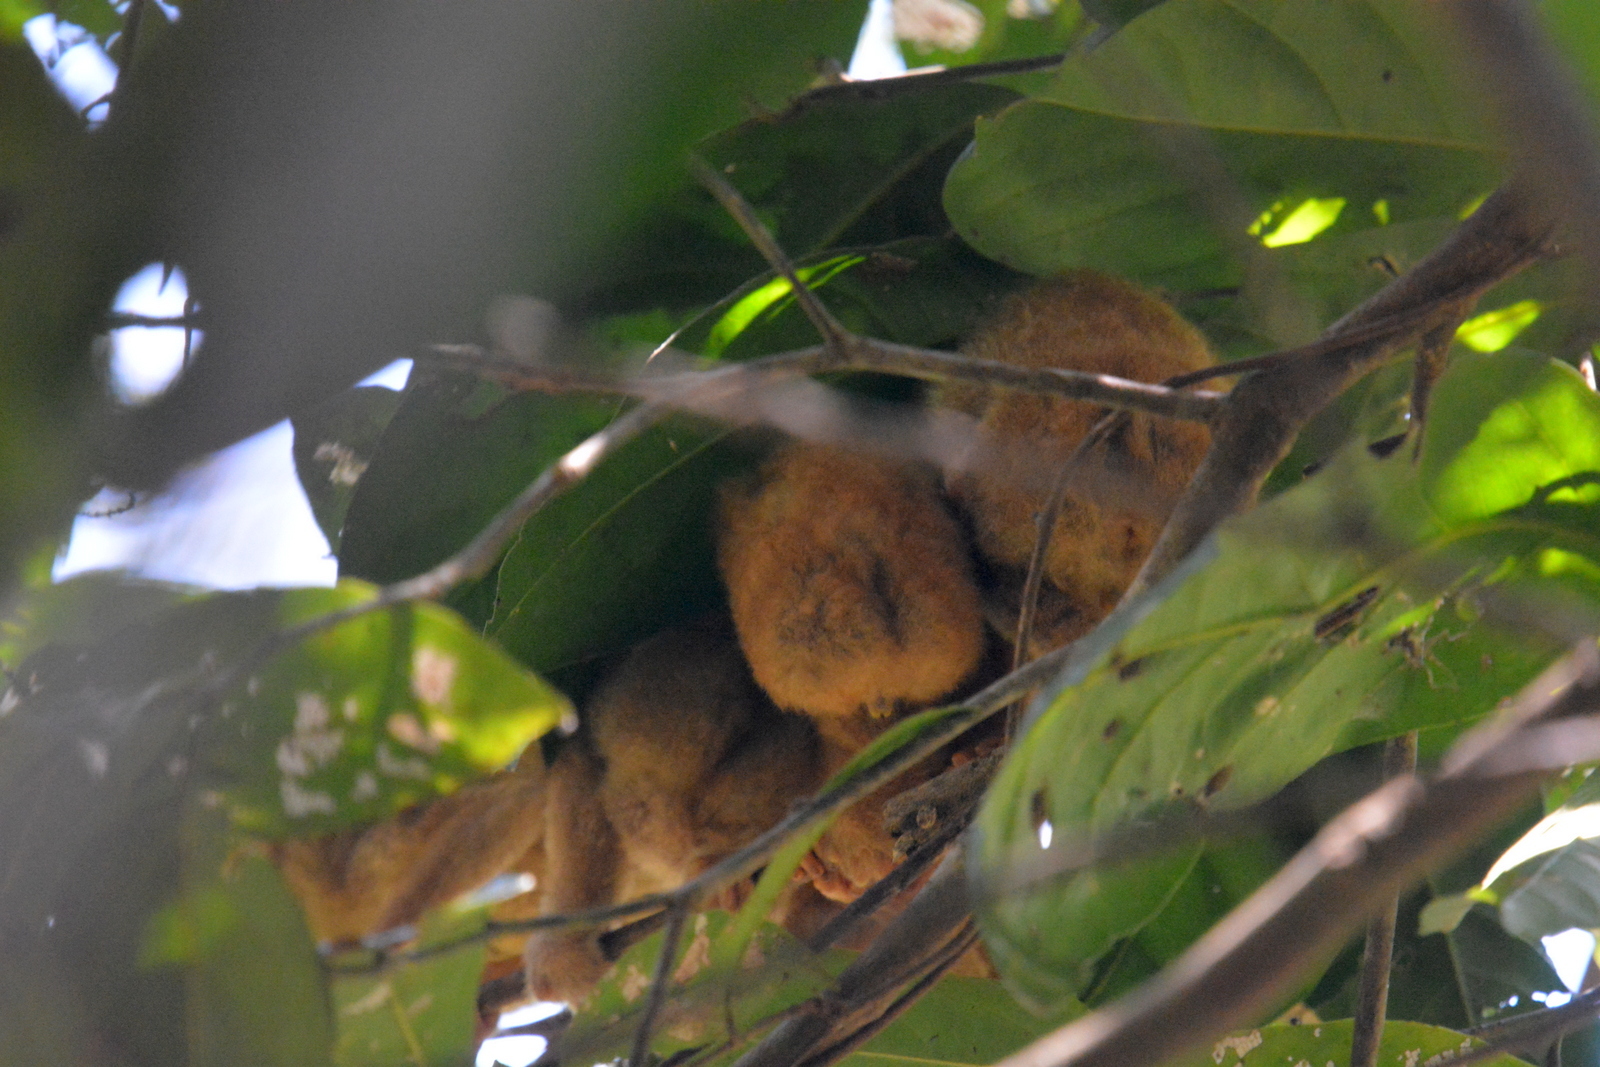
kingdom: Animalia
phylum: Chordata
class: Mammalia
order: Primates
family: Lorisidae
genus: Loris
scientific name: Loris lydekkerianus
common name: Gray slender loris
